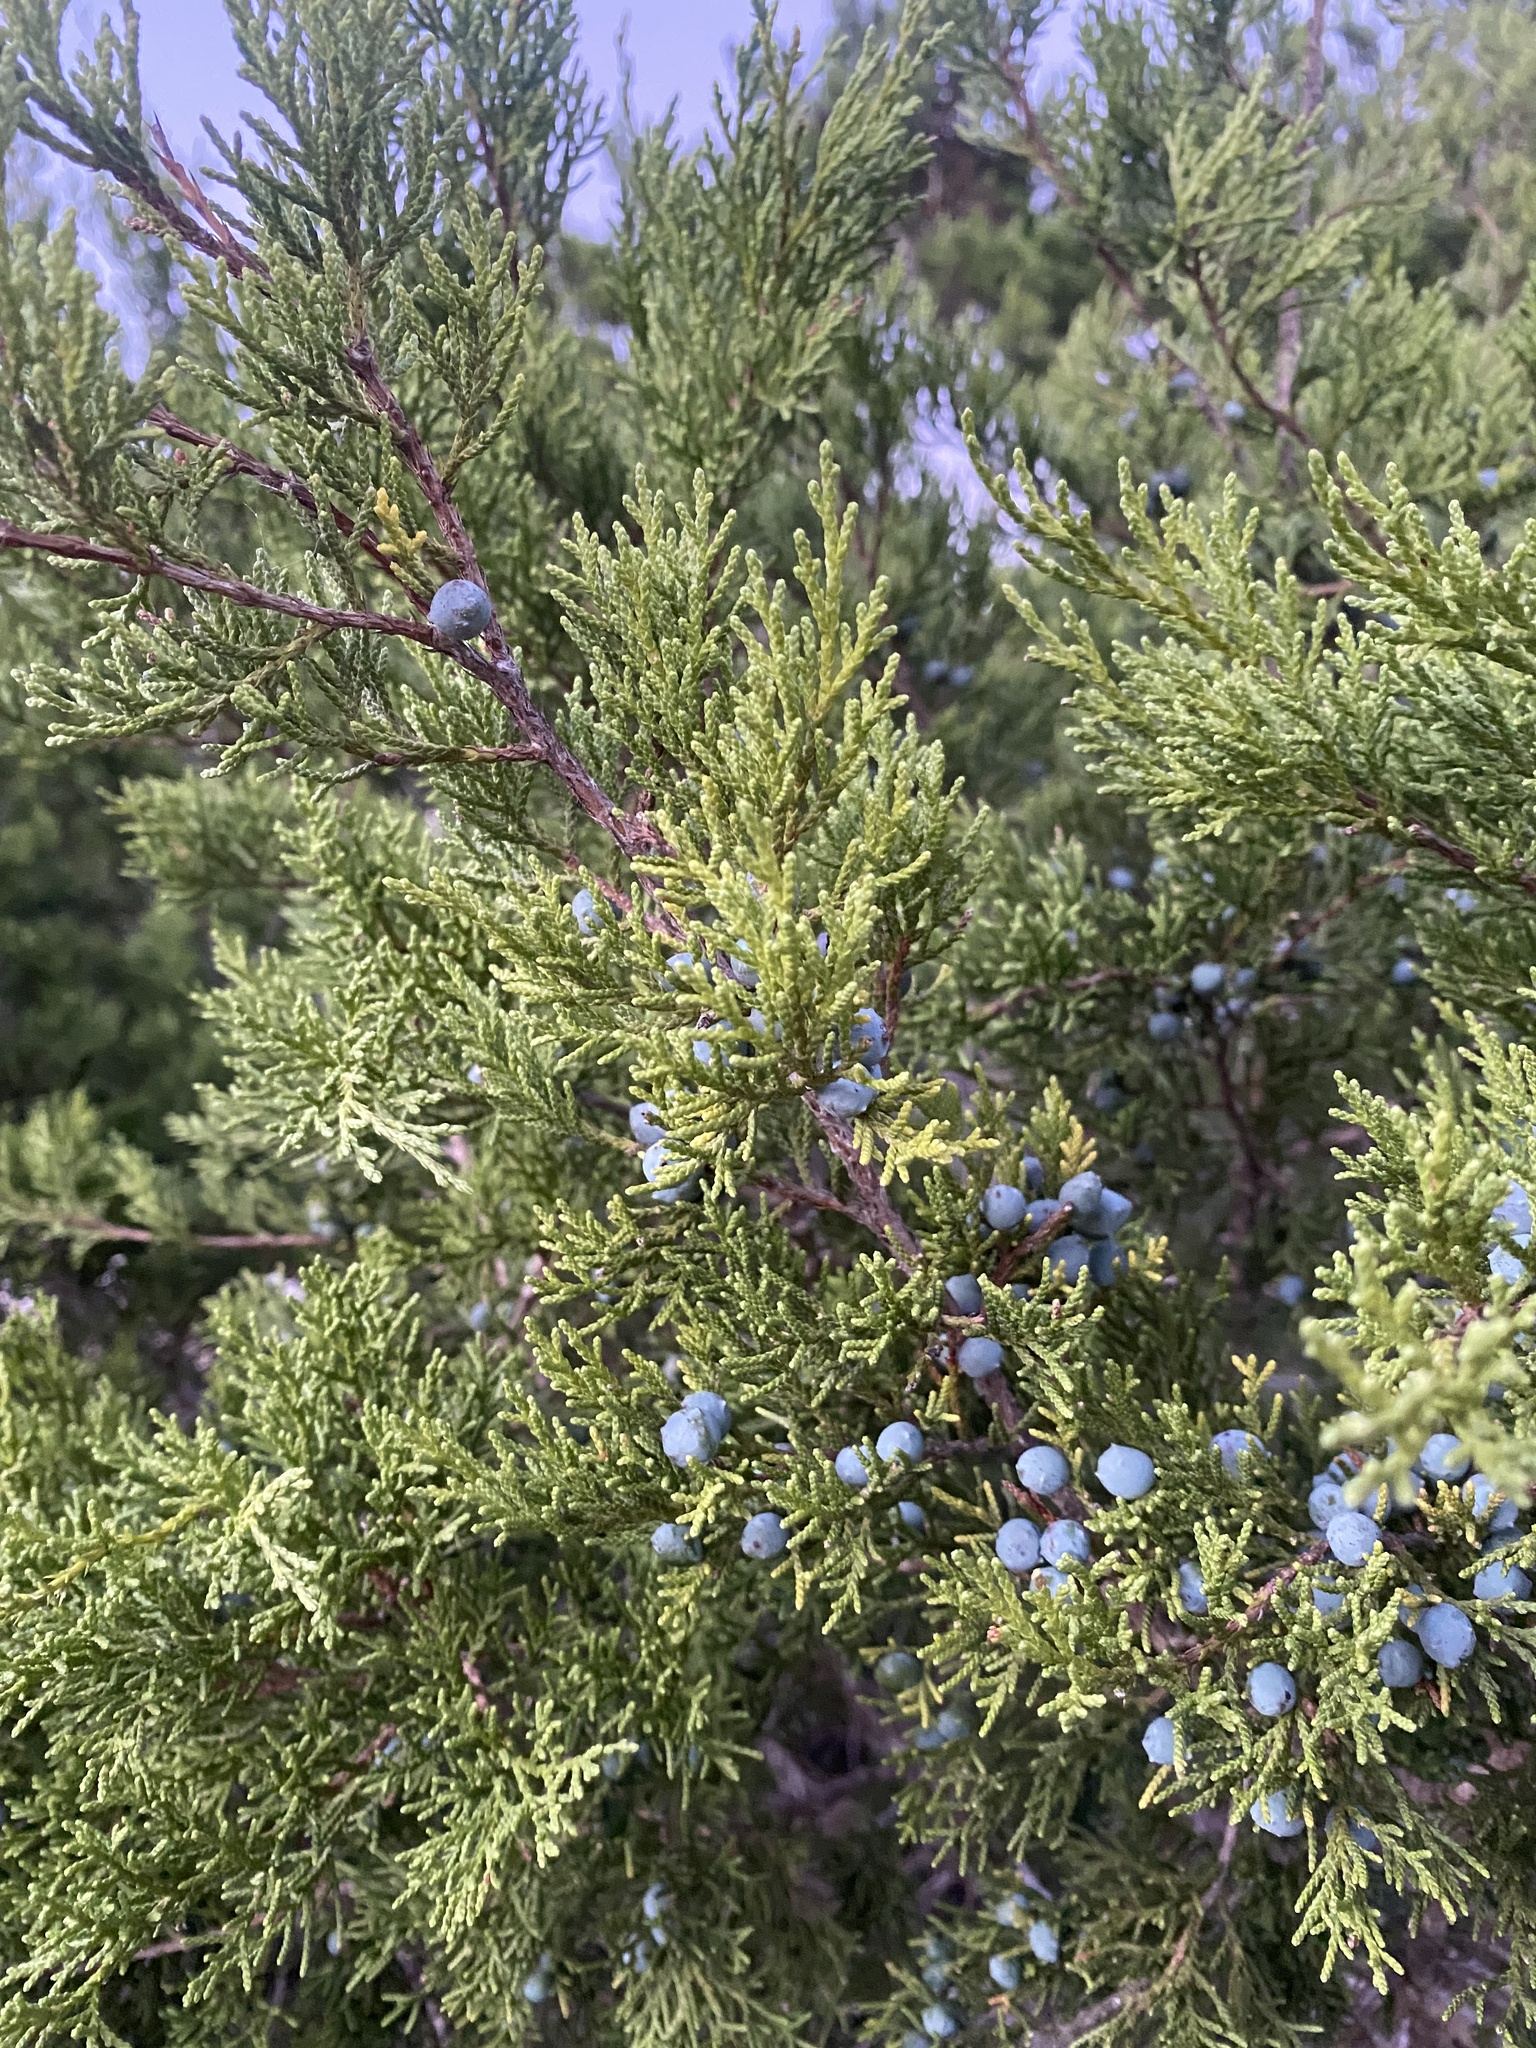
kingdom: Plantae
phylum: Tracheophyta
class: Pinopsida
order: Pinales
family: Cupressaceae
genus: Juniperus
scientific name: Juniperus ashei
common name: Mexican juniper
